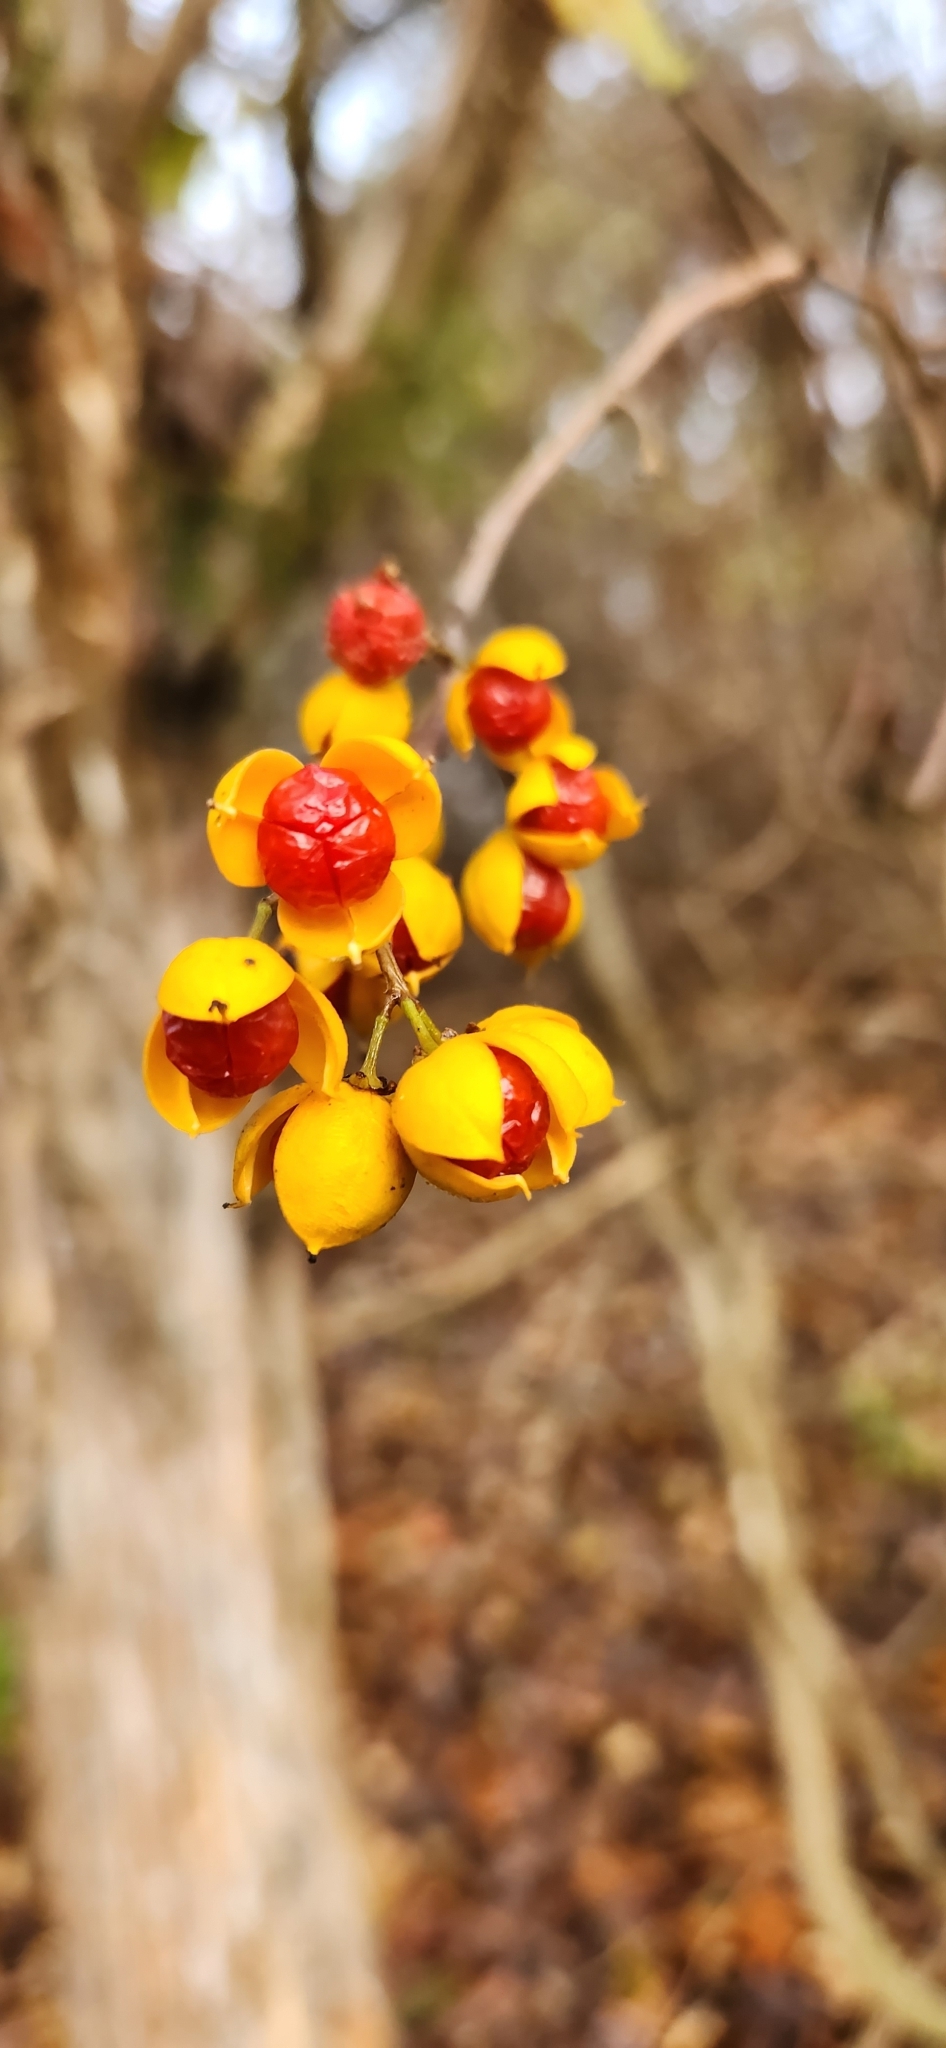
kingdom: Plantae
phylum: Tracheophyta
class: Magnoliopsida
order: Celastrales
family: Celastraceae
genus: Celastrus
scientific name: Celastrus orbiculatus
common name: Oriental bittersweet
